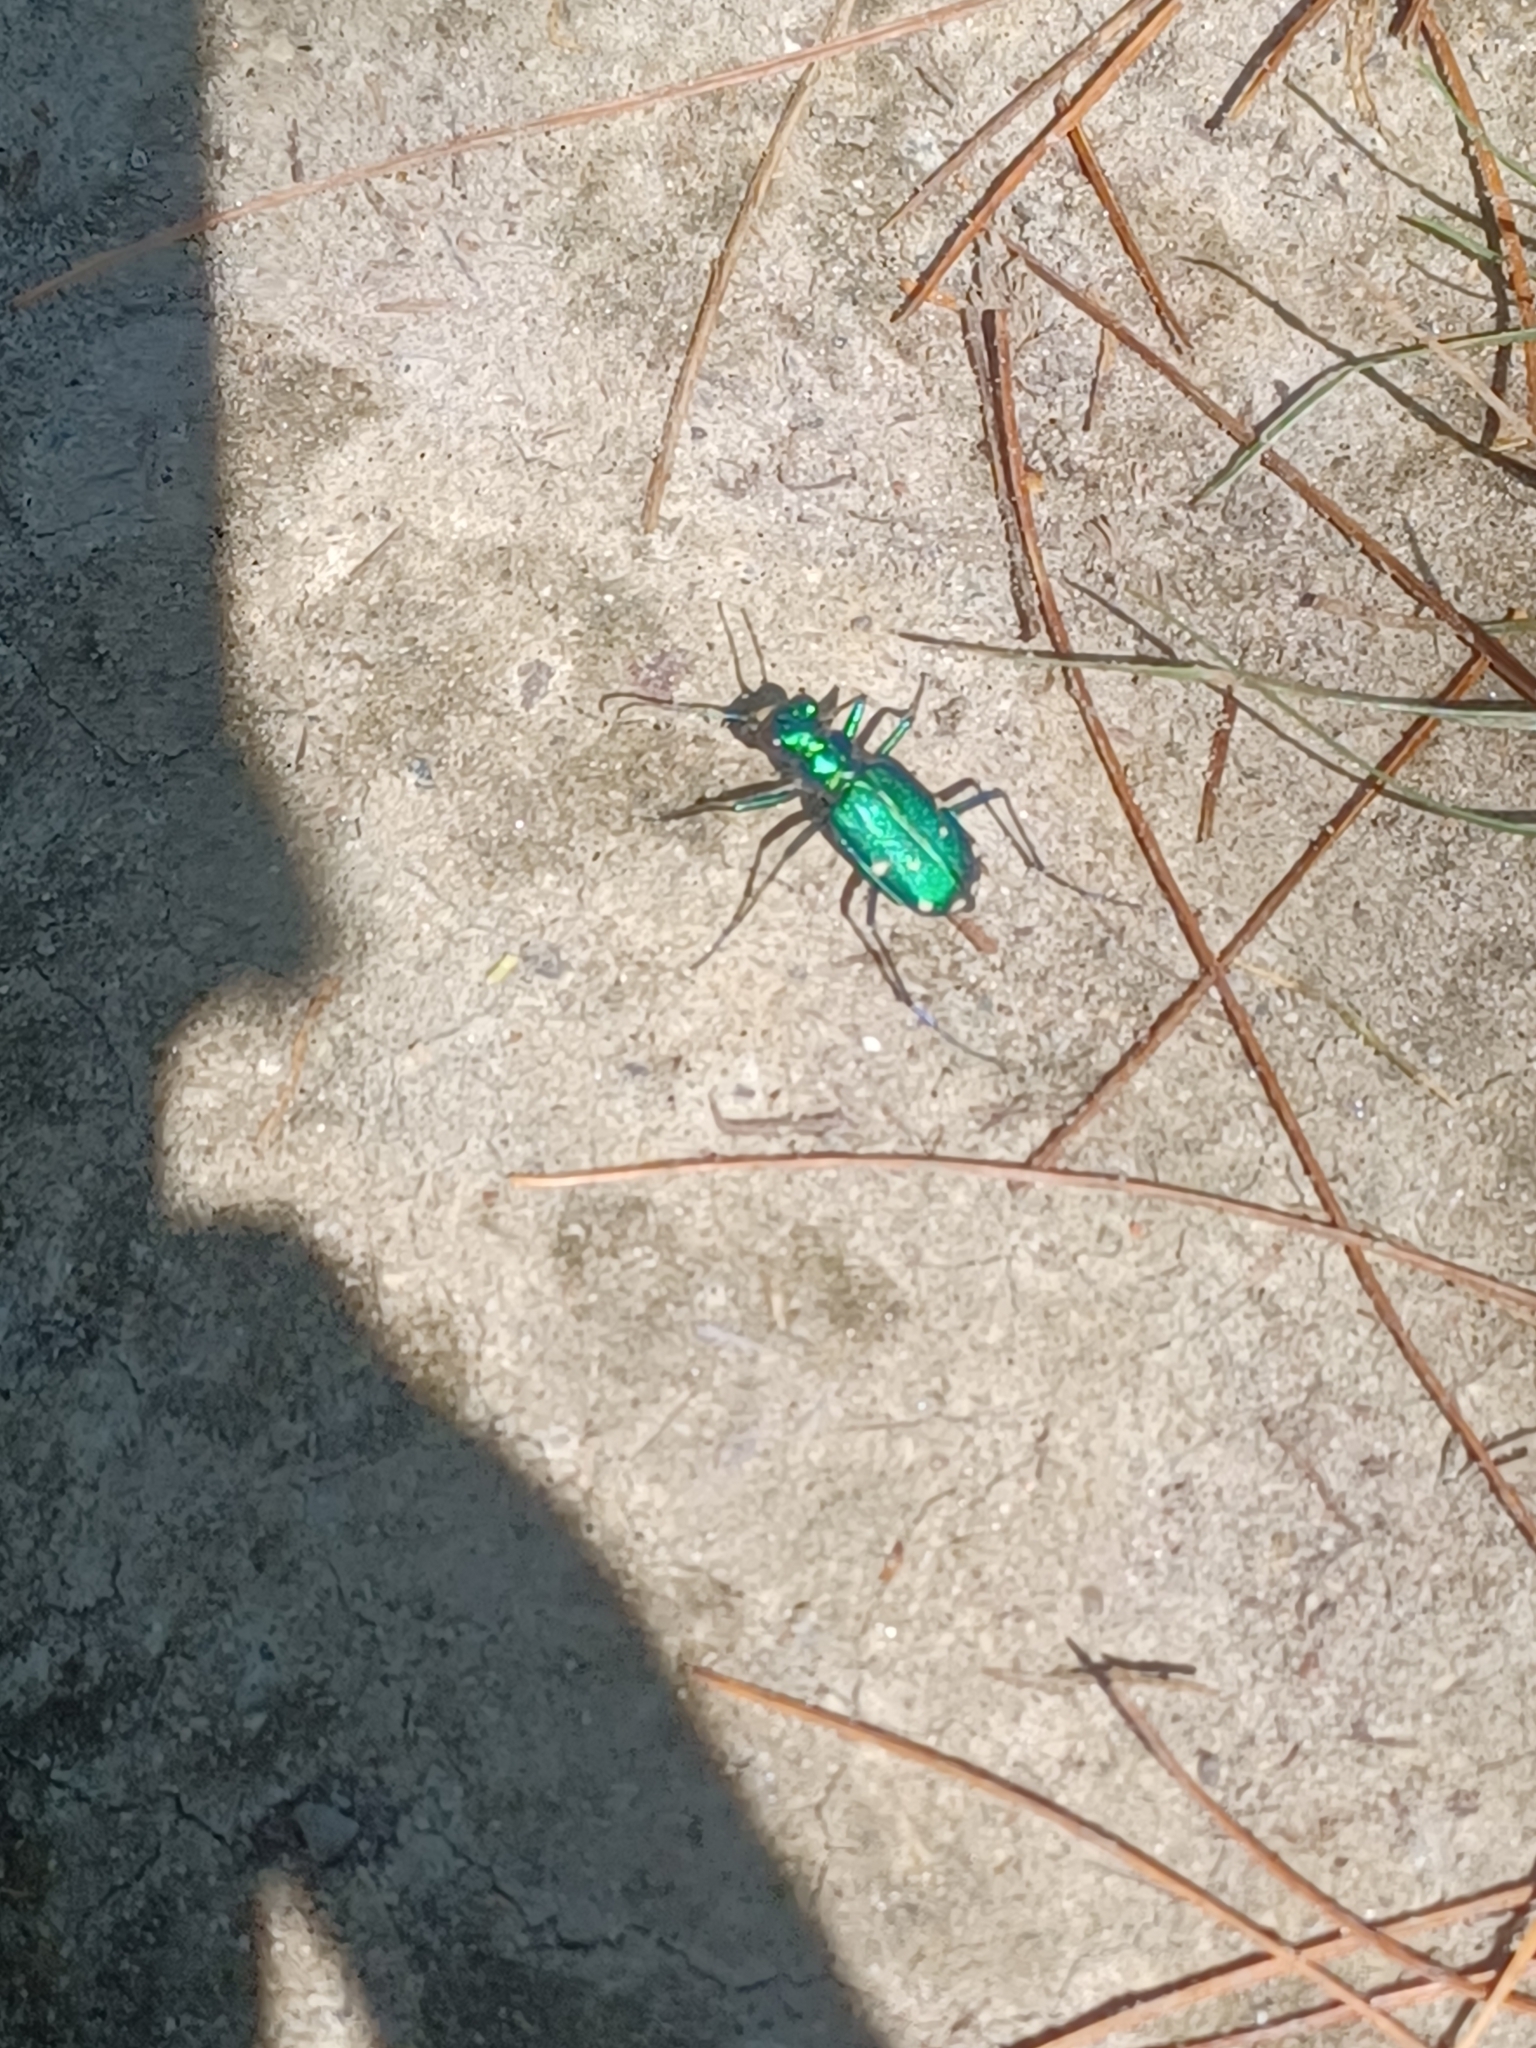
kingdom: Animalia
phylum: Arthropoda
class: Insecta
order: Coleoptera
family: Carabidae
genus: Cicindela
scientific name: Cicindela sexguttata
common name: Six-spotted tiger beetle
